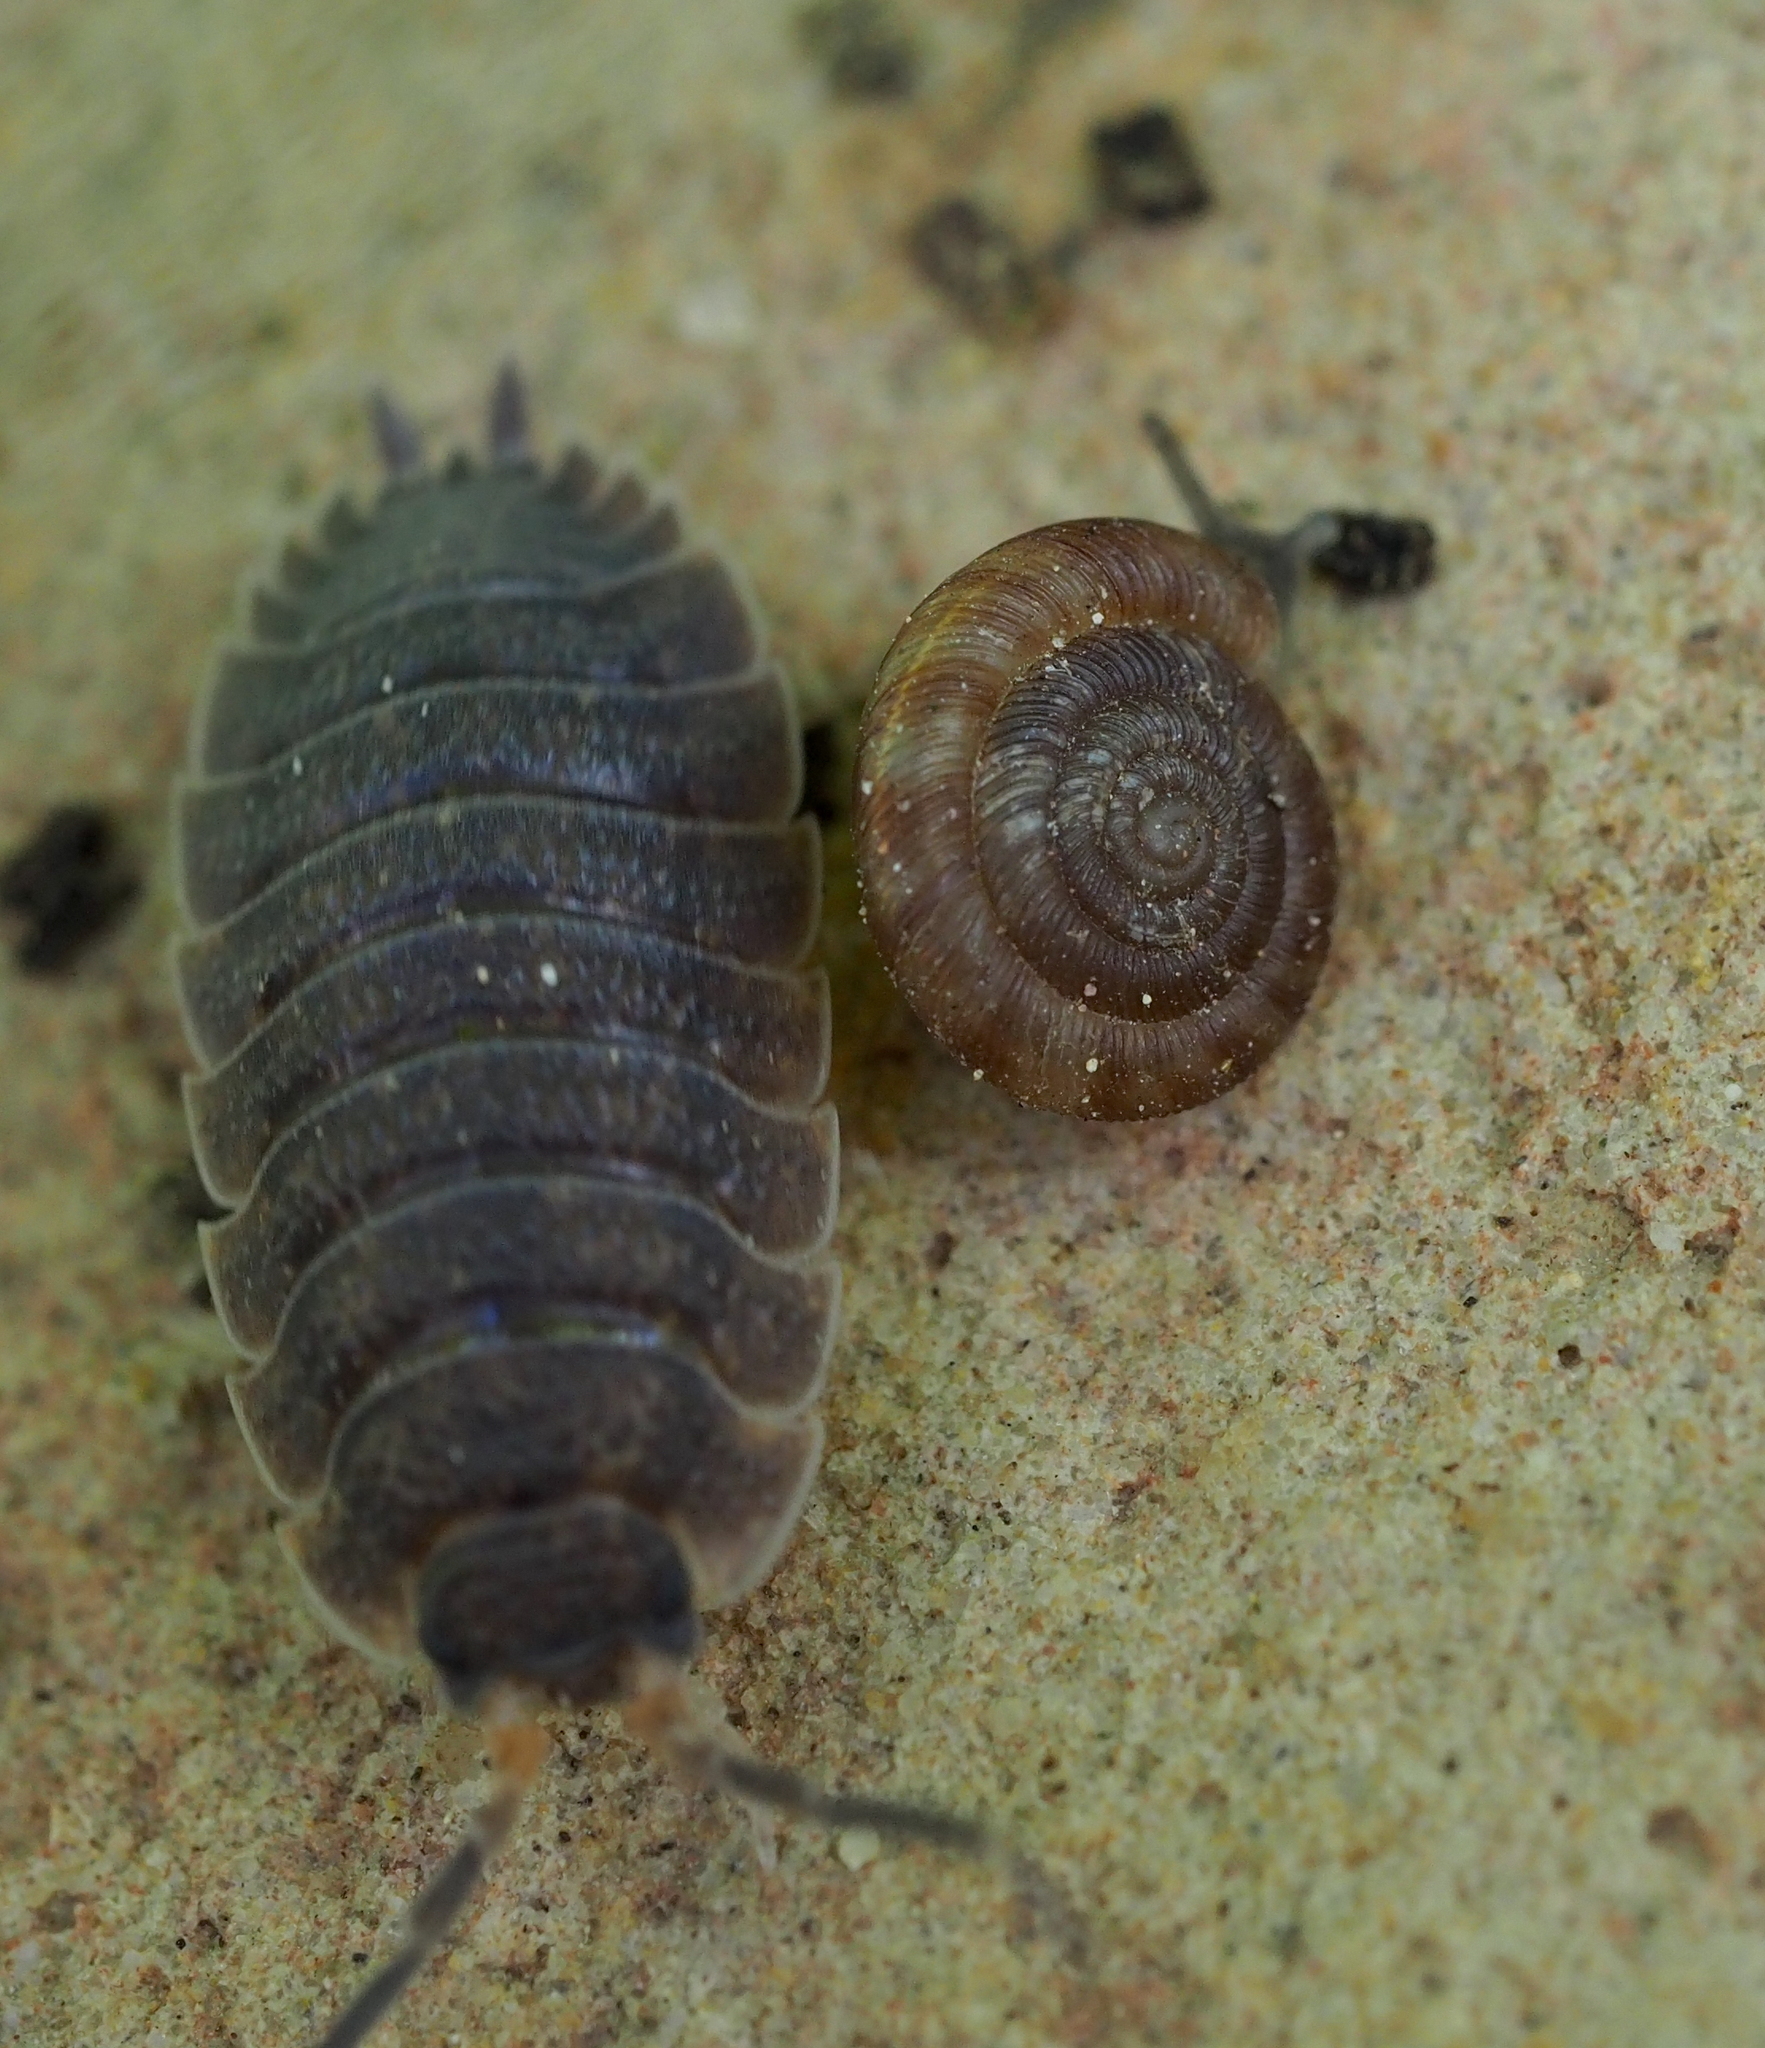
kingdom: Animalia
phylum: Mollusca
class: Gastropoda
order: Stylommatophora
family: Discidae
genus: Discus
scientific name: Discus rotundatus
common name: Rounded snail
